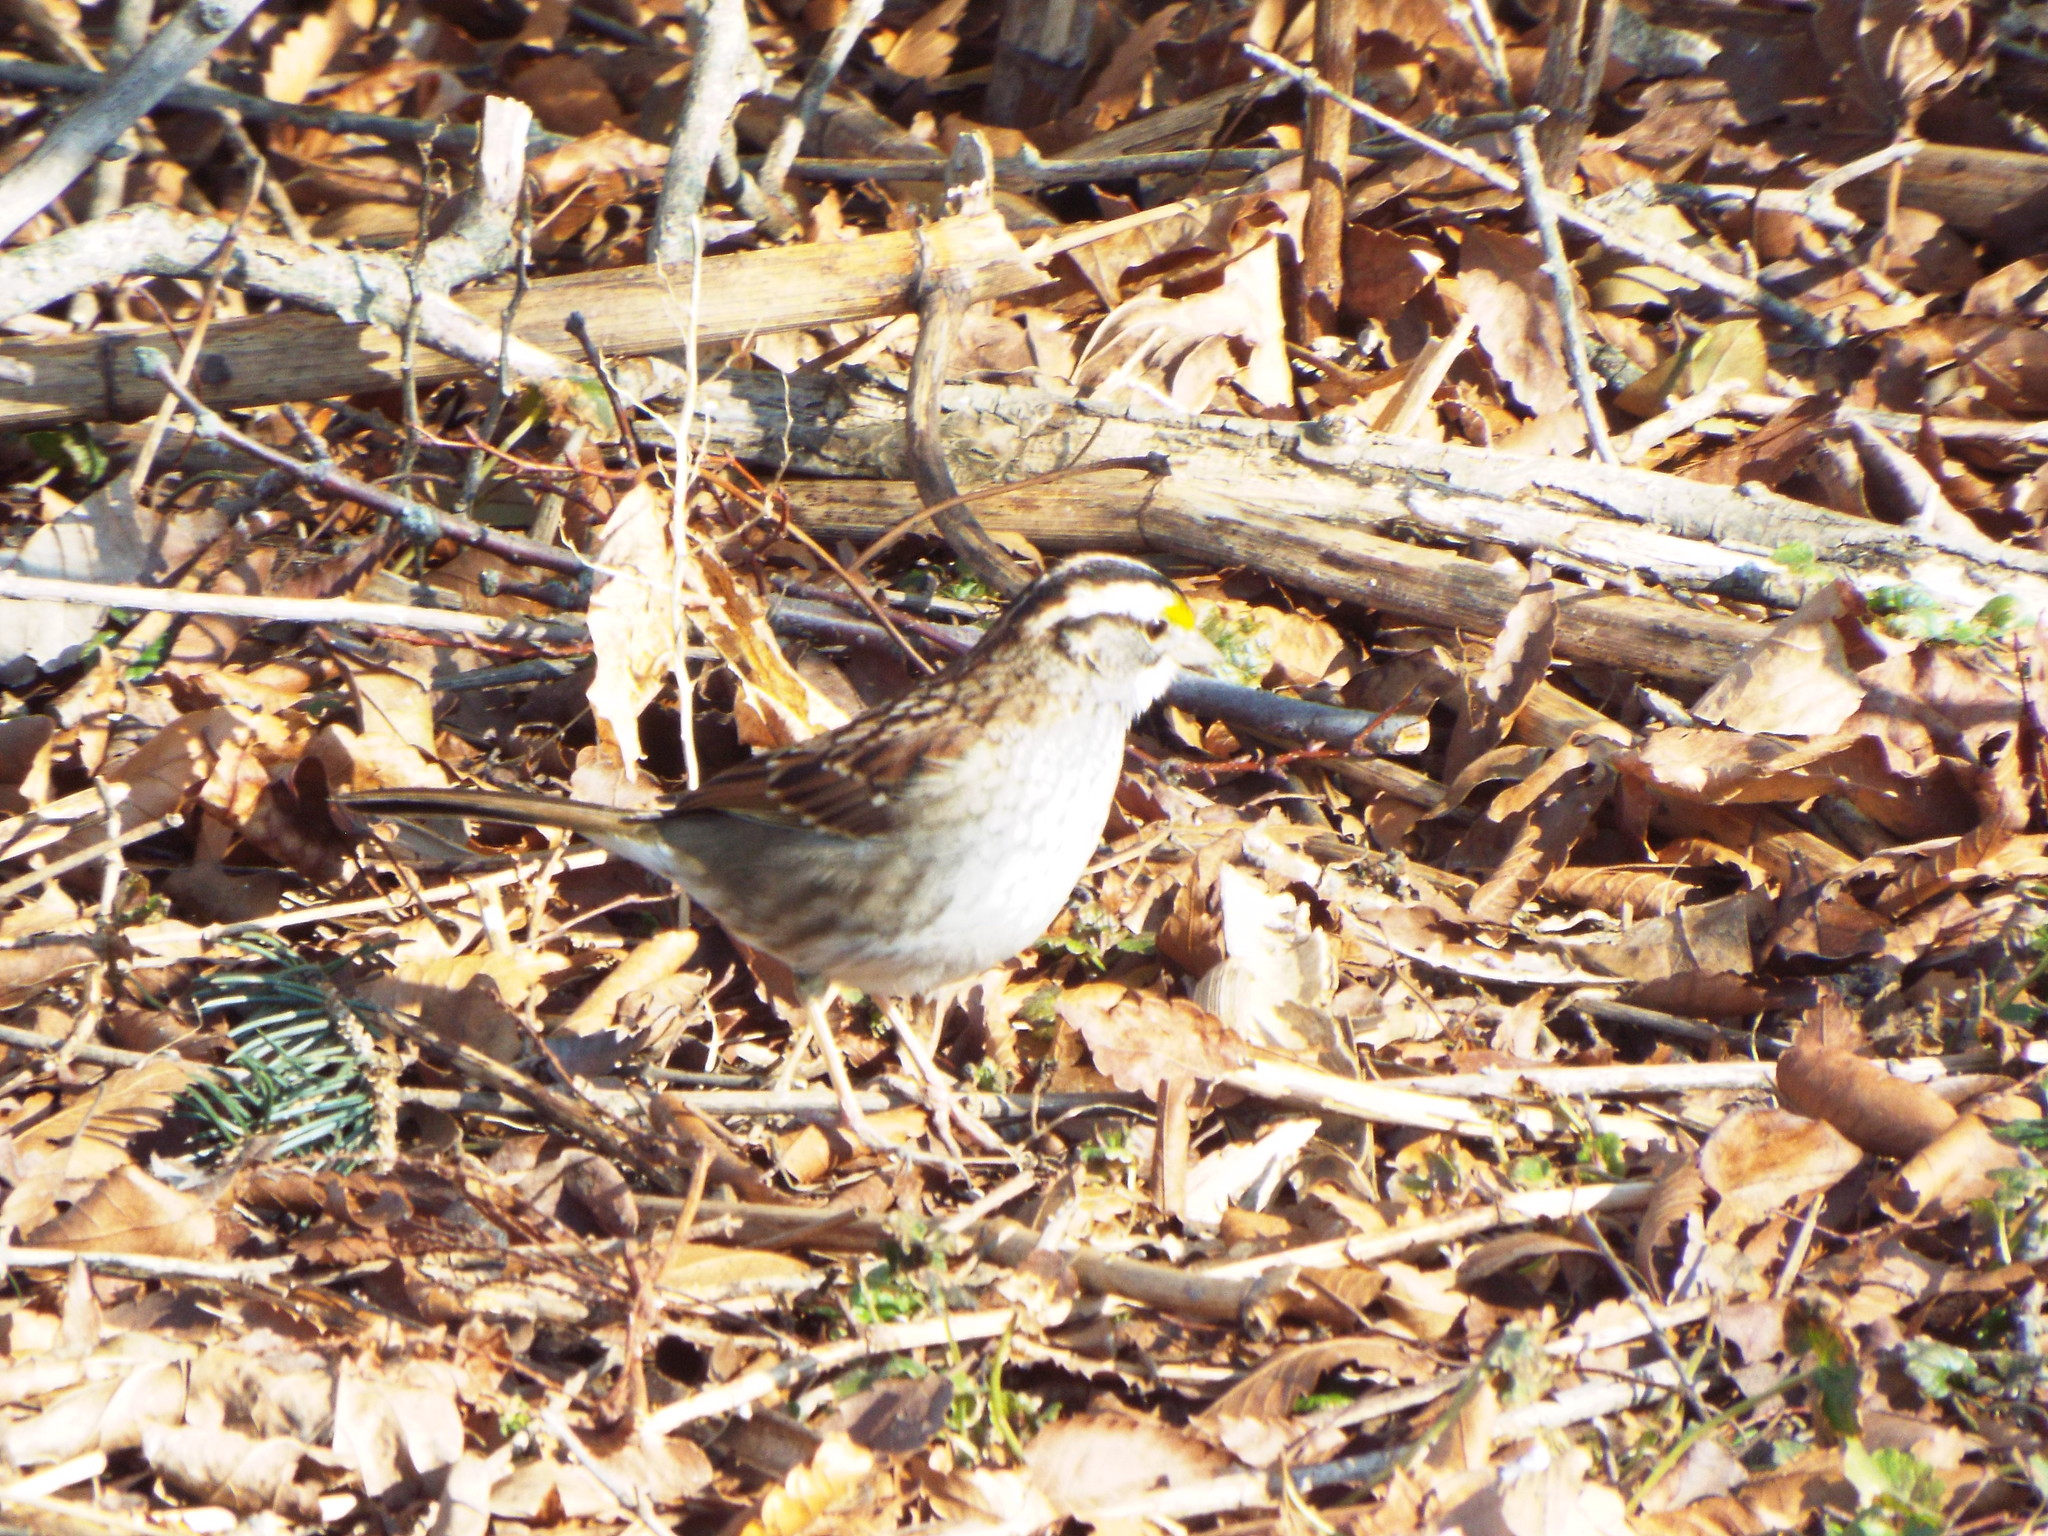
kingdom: Animalia
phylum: Chordata
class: Aves
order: Passeriformes
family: Passerellidae
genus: Zonotrichia
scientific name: Zonotrichia albicollis
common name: White-throated sparrow
